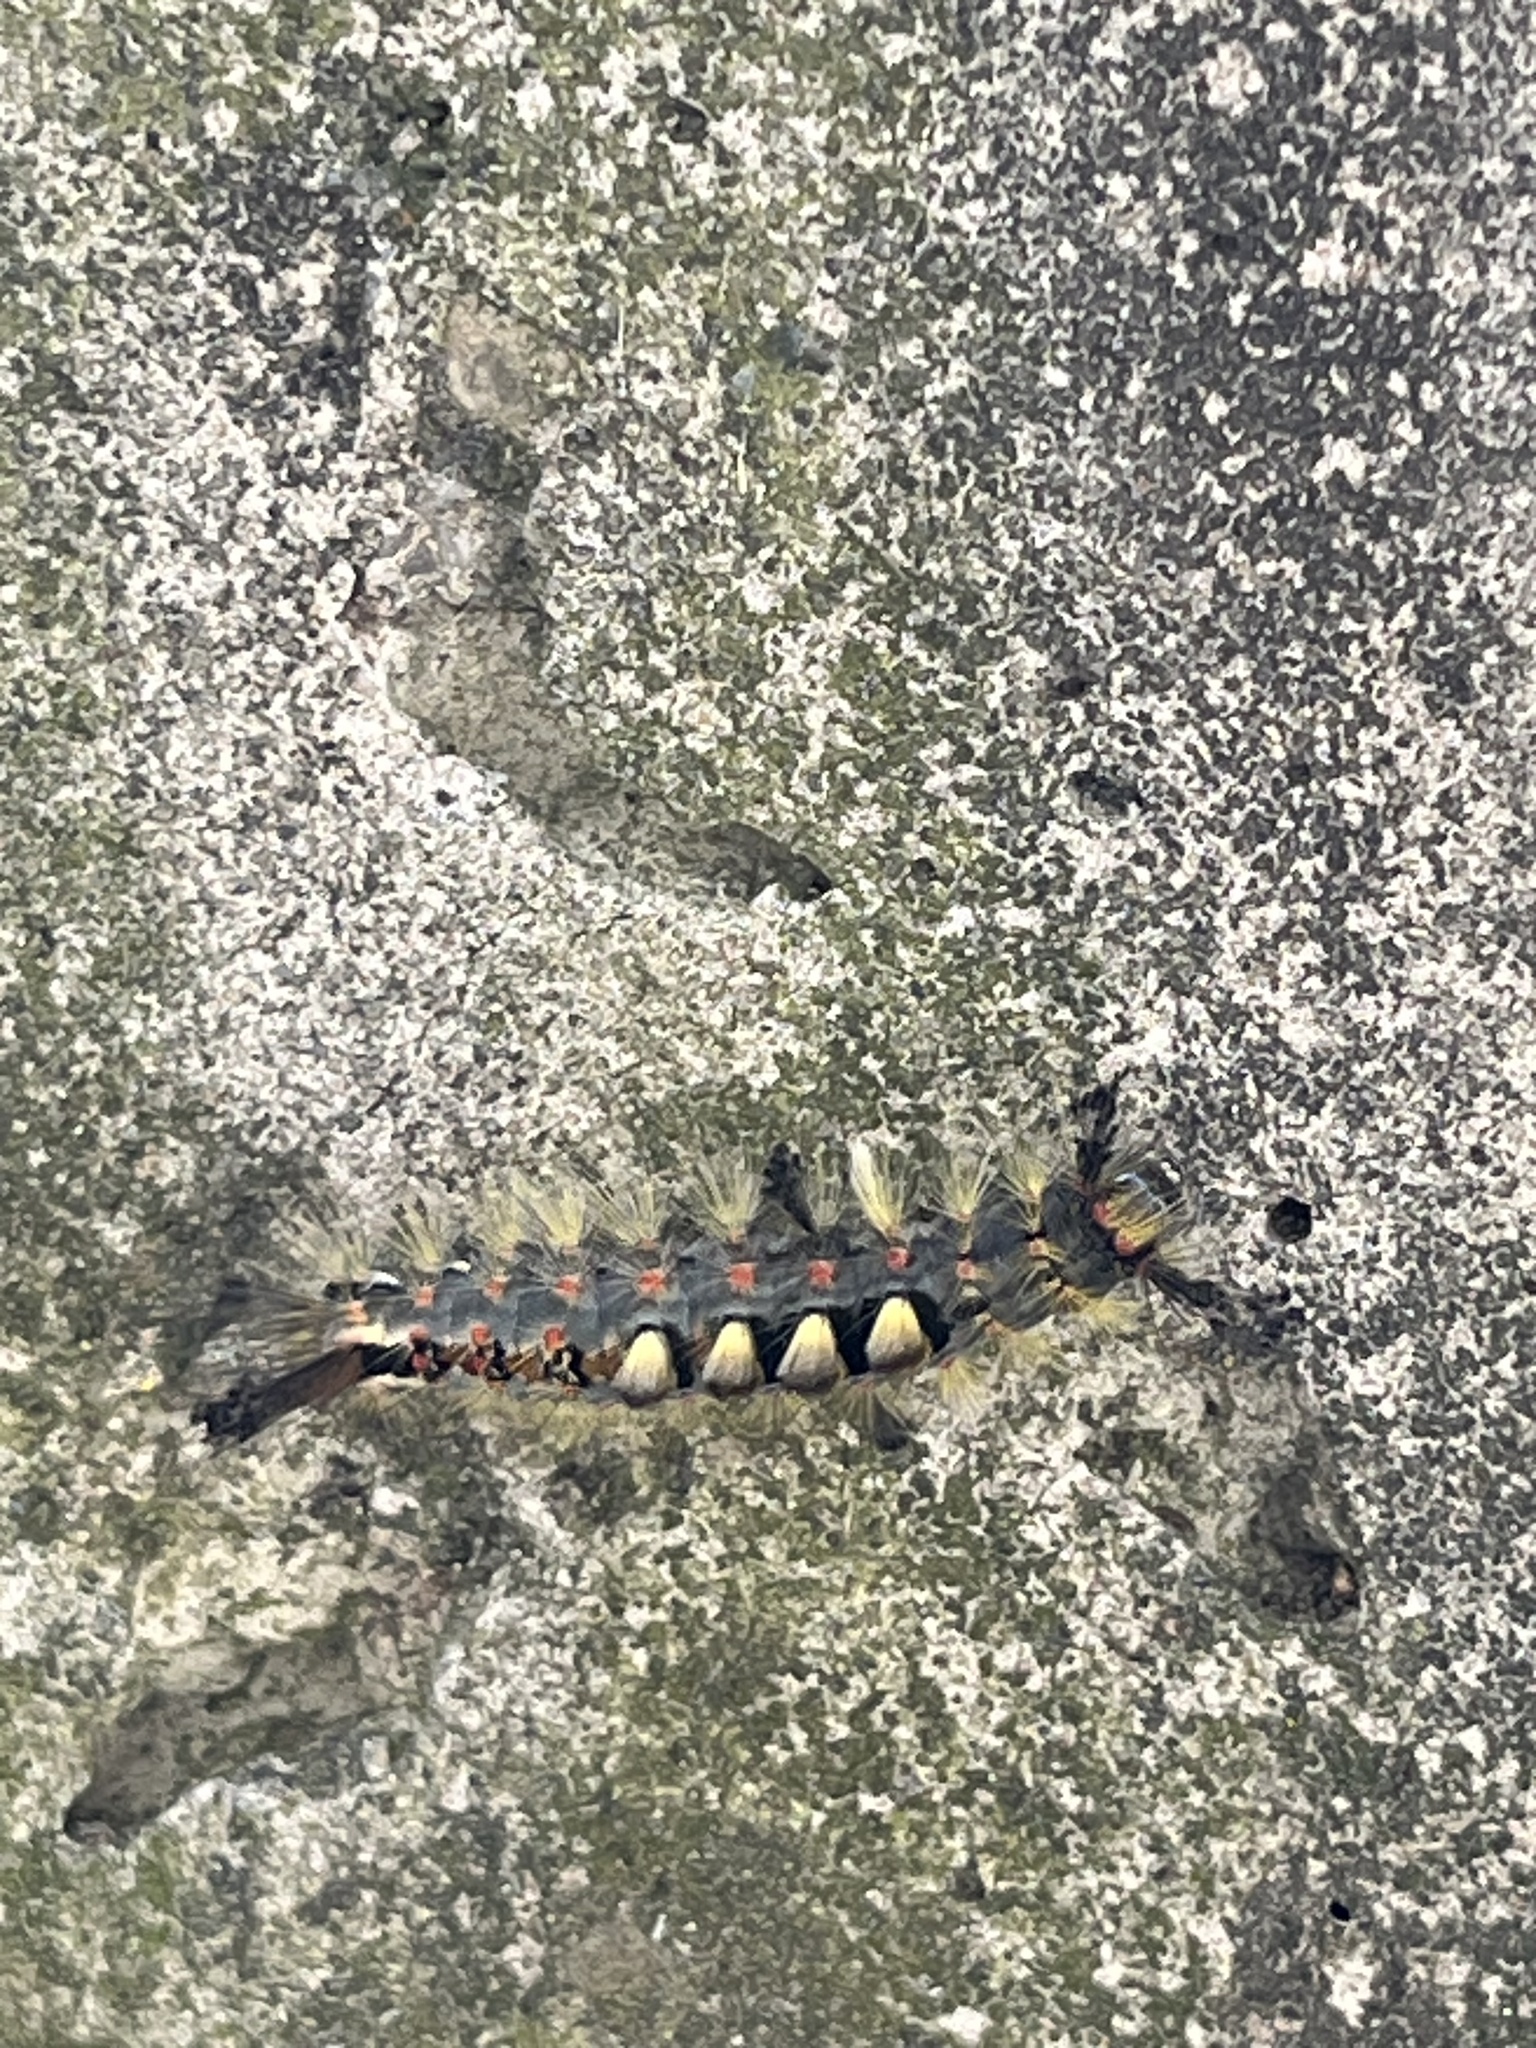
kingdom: Animalia
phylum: Arthropoda
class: Insecta
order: Lepidoptera
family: Erebidae
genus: Orgyia
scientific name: Orgyia antiqua
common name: Vapourer
